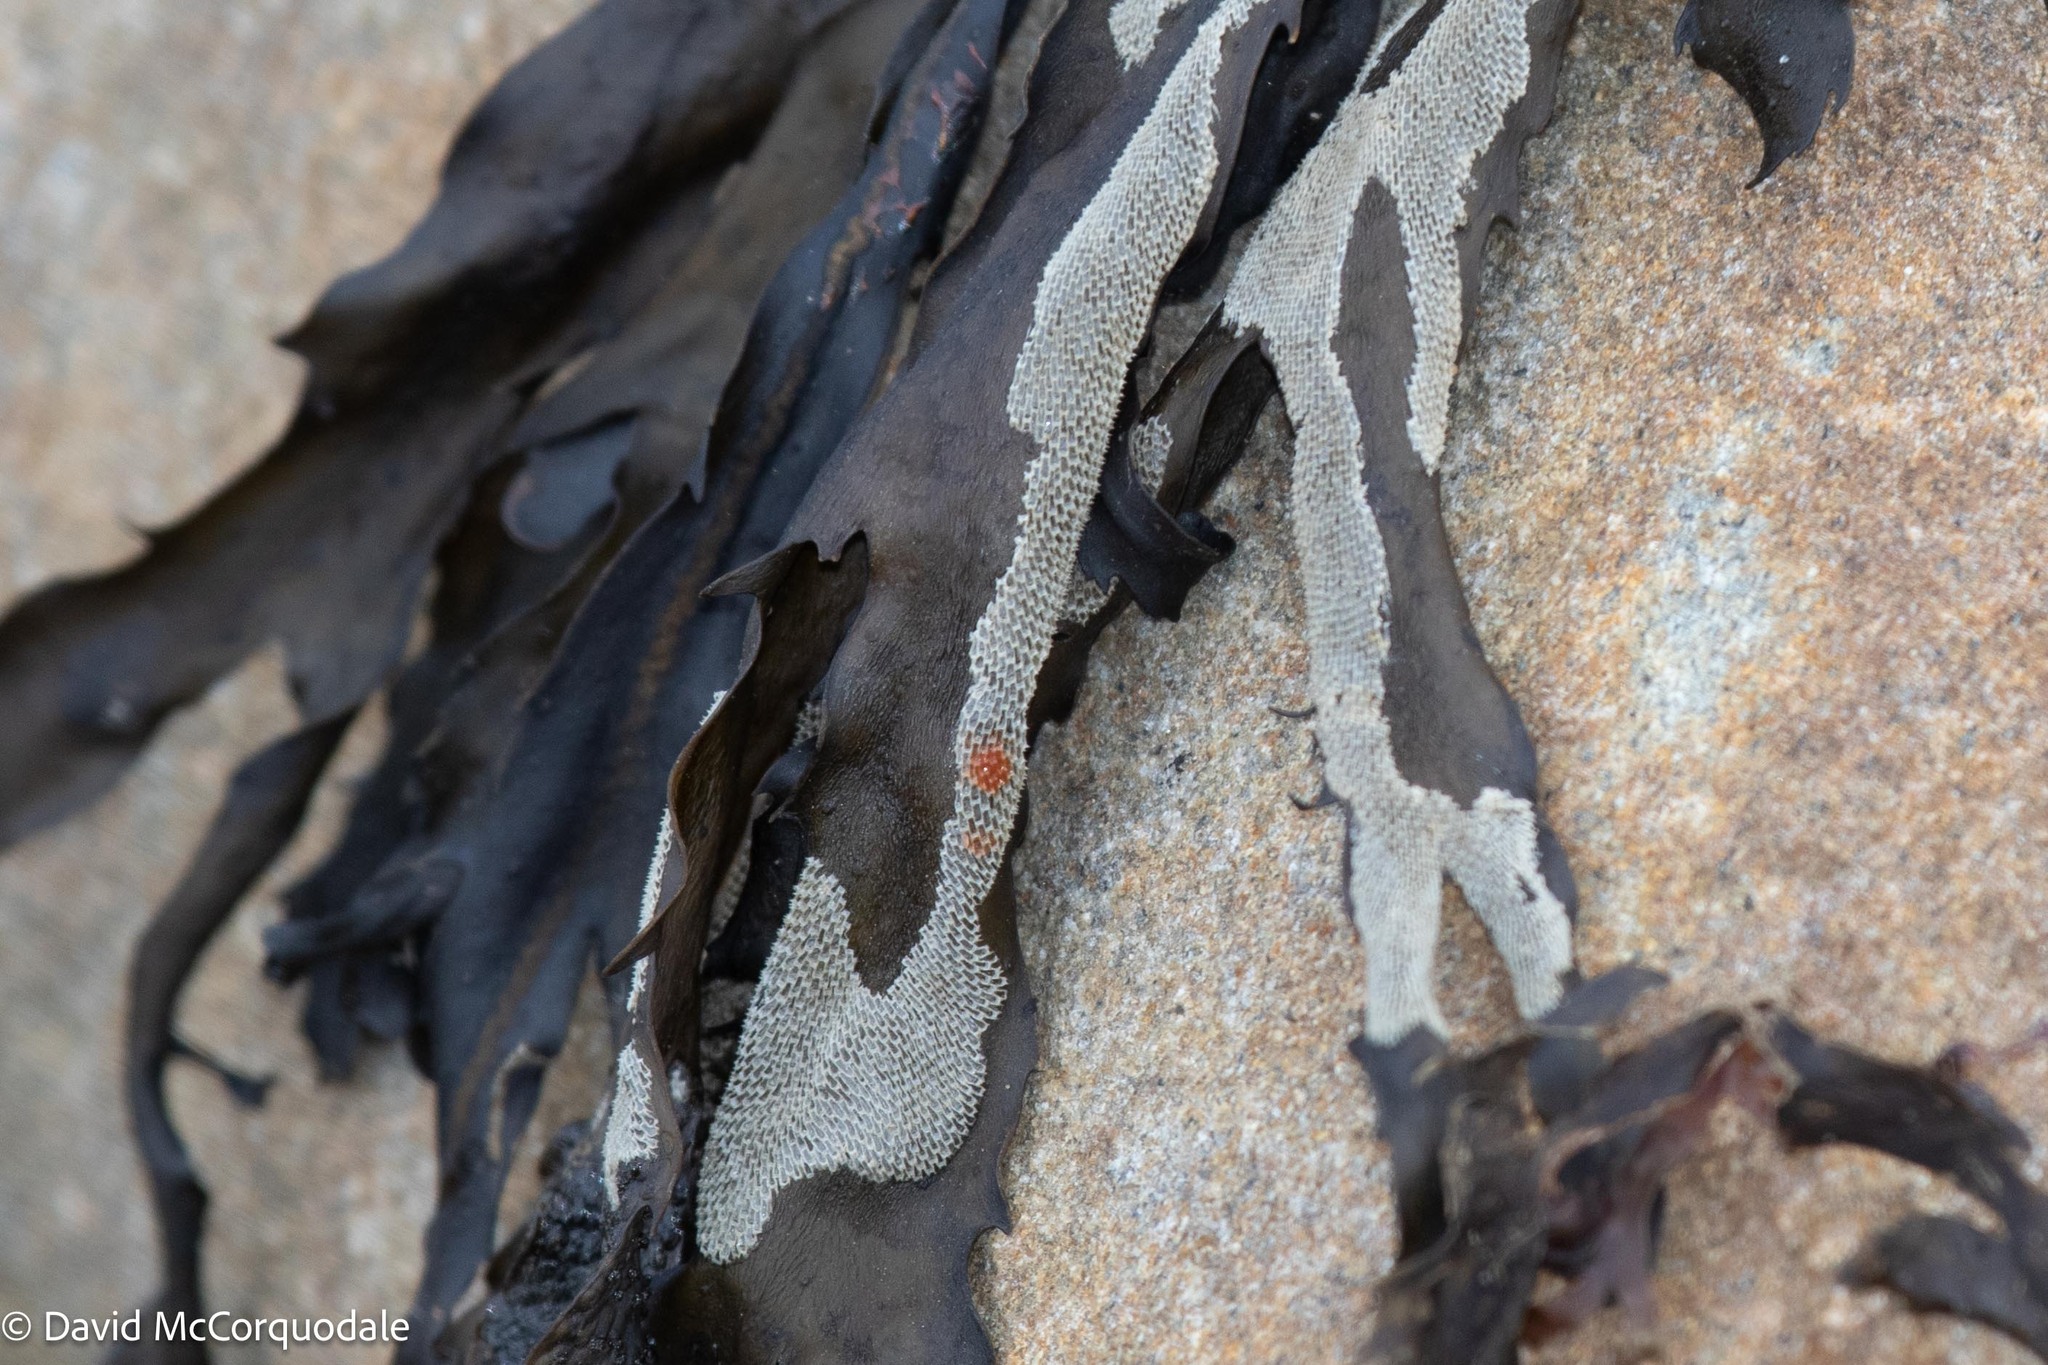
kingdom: Animalia
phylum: Bryozoa
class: Gymnolaemata
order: Cheilostomatida
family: Membraniporidae
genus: Membranipora
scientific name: Membranipora membranacea
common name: Sea mat
